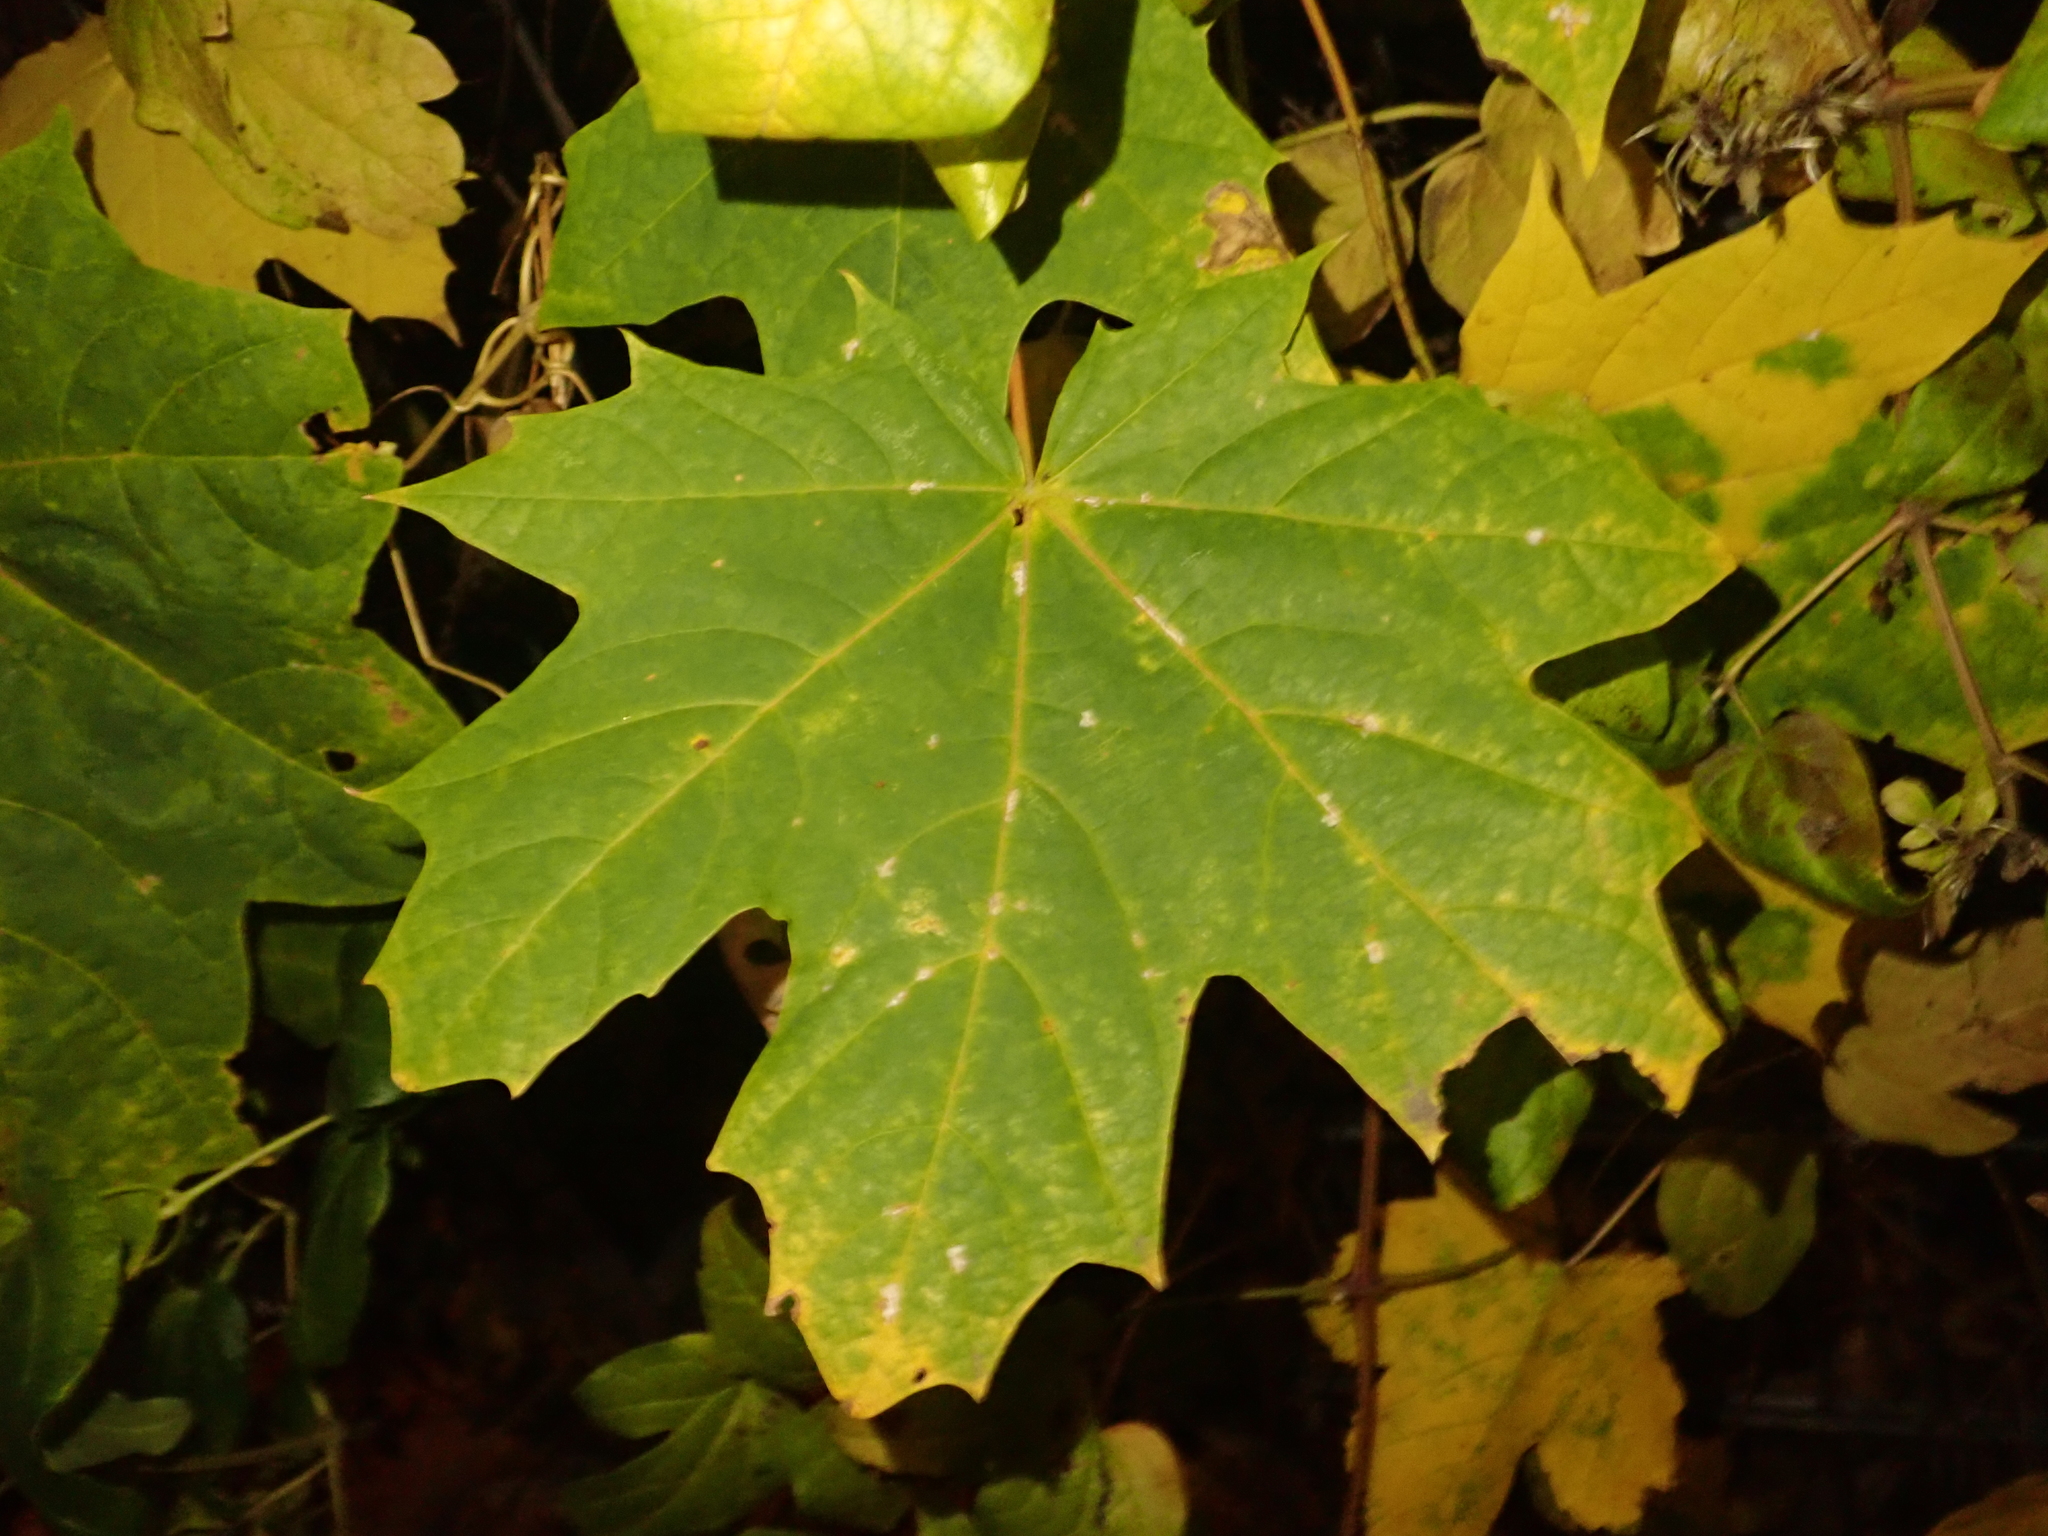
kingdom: Plantae
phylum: Tracheophyta
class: Magnoliopsida
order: Sapindales
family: Sapindaceae
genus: Acer
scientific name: Acer platanoides
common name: Norway maple
